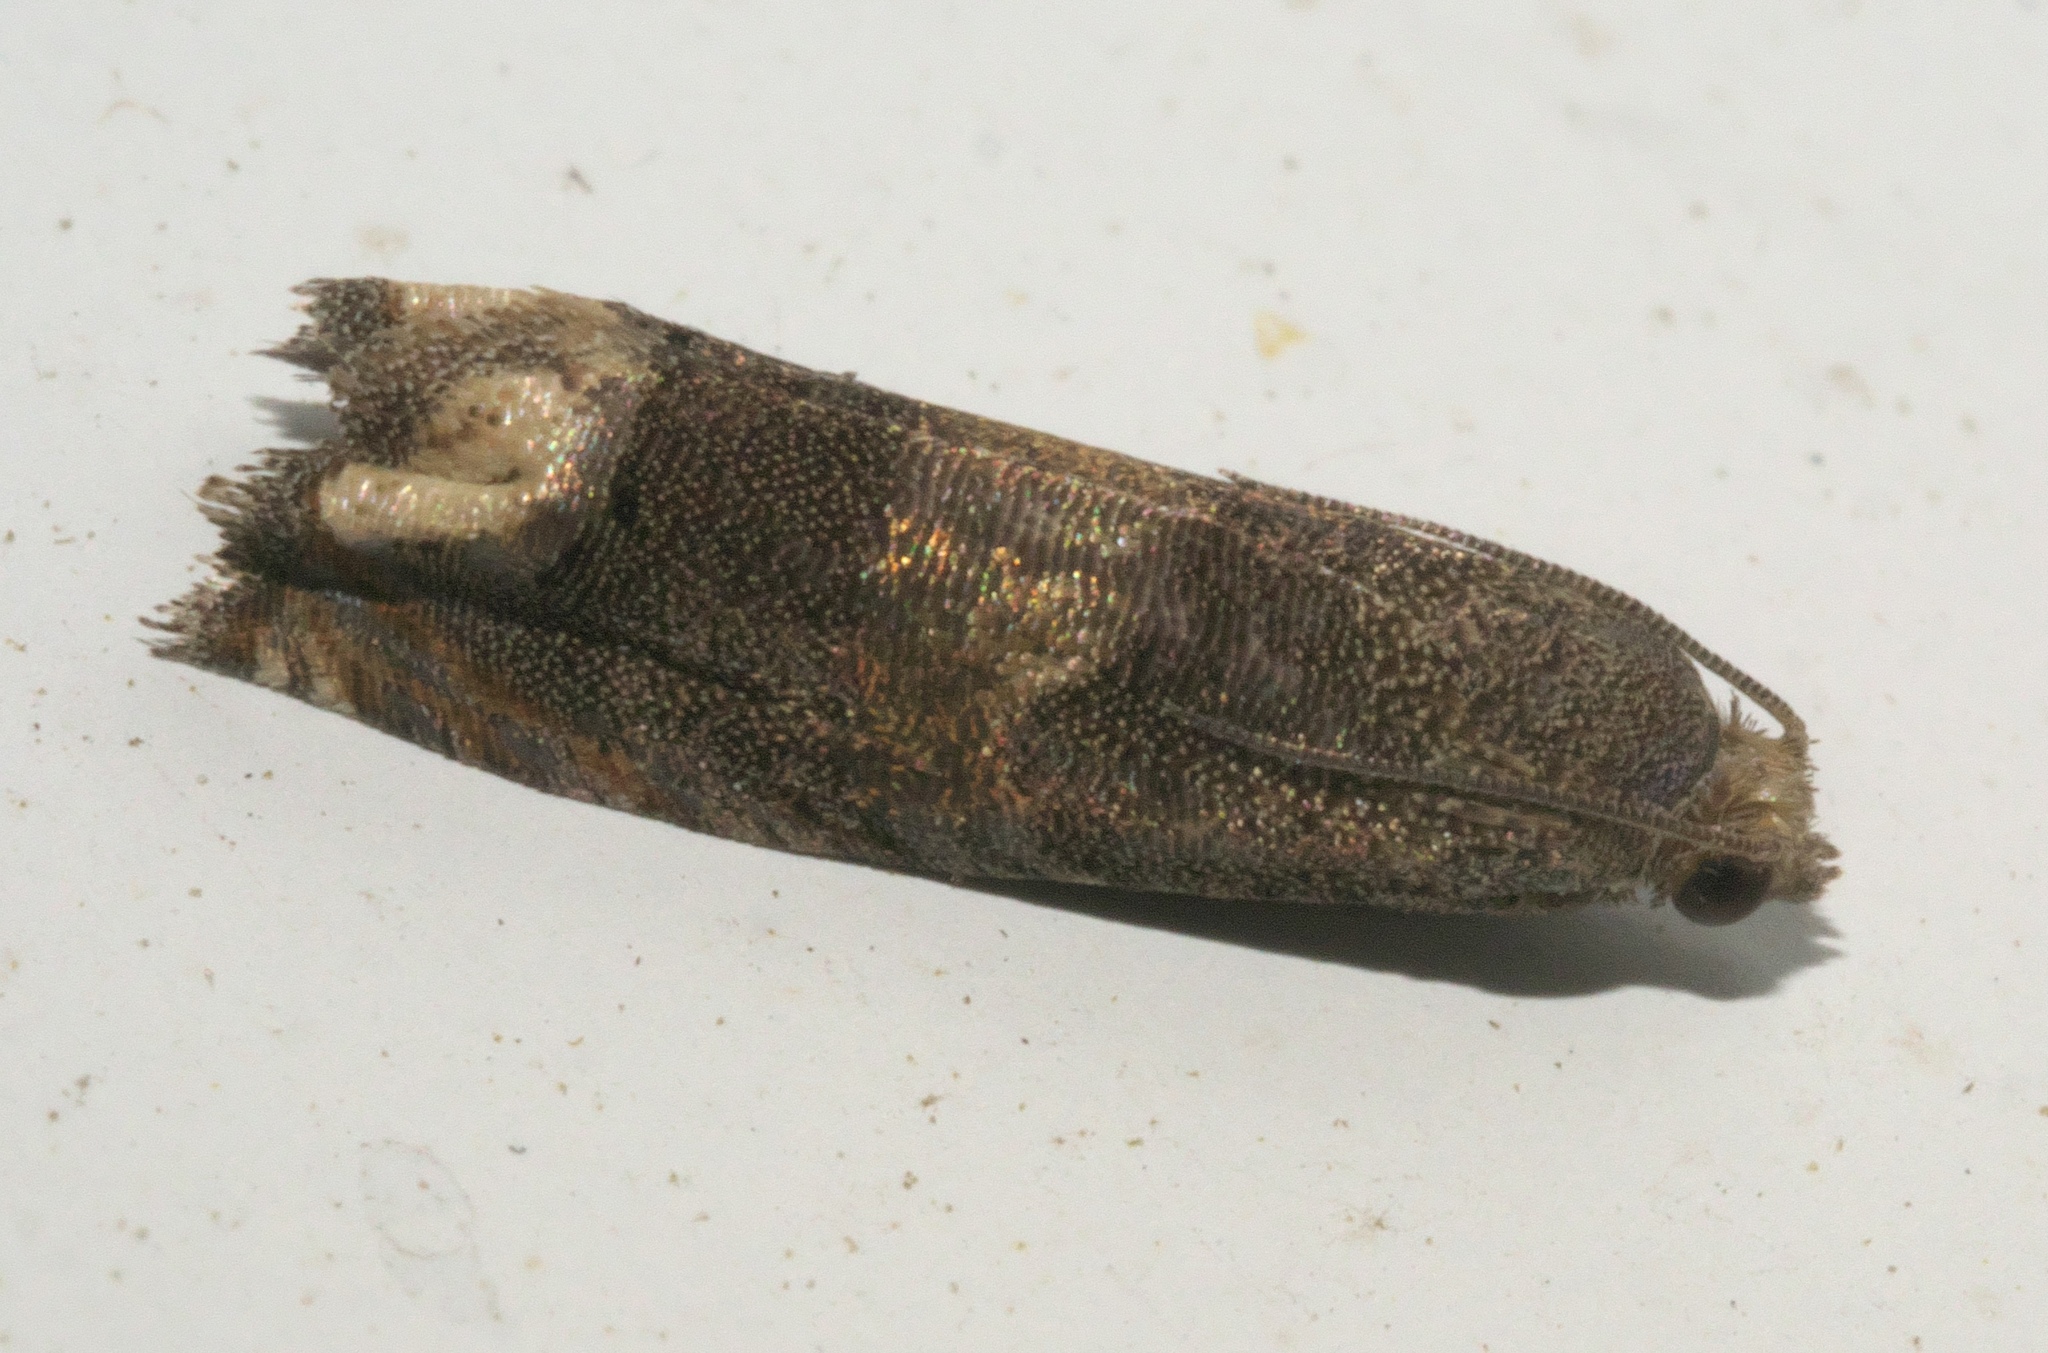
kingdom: Animalia
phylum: Arthropoda
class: Insecta
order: Lepidoptera
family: Tortricidae
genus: Epiblema
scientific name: Epiblema strenuana
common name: Ragweed borer moth
